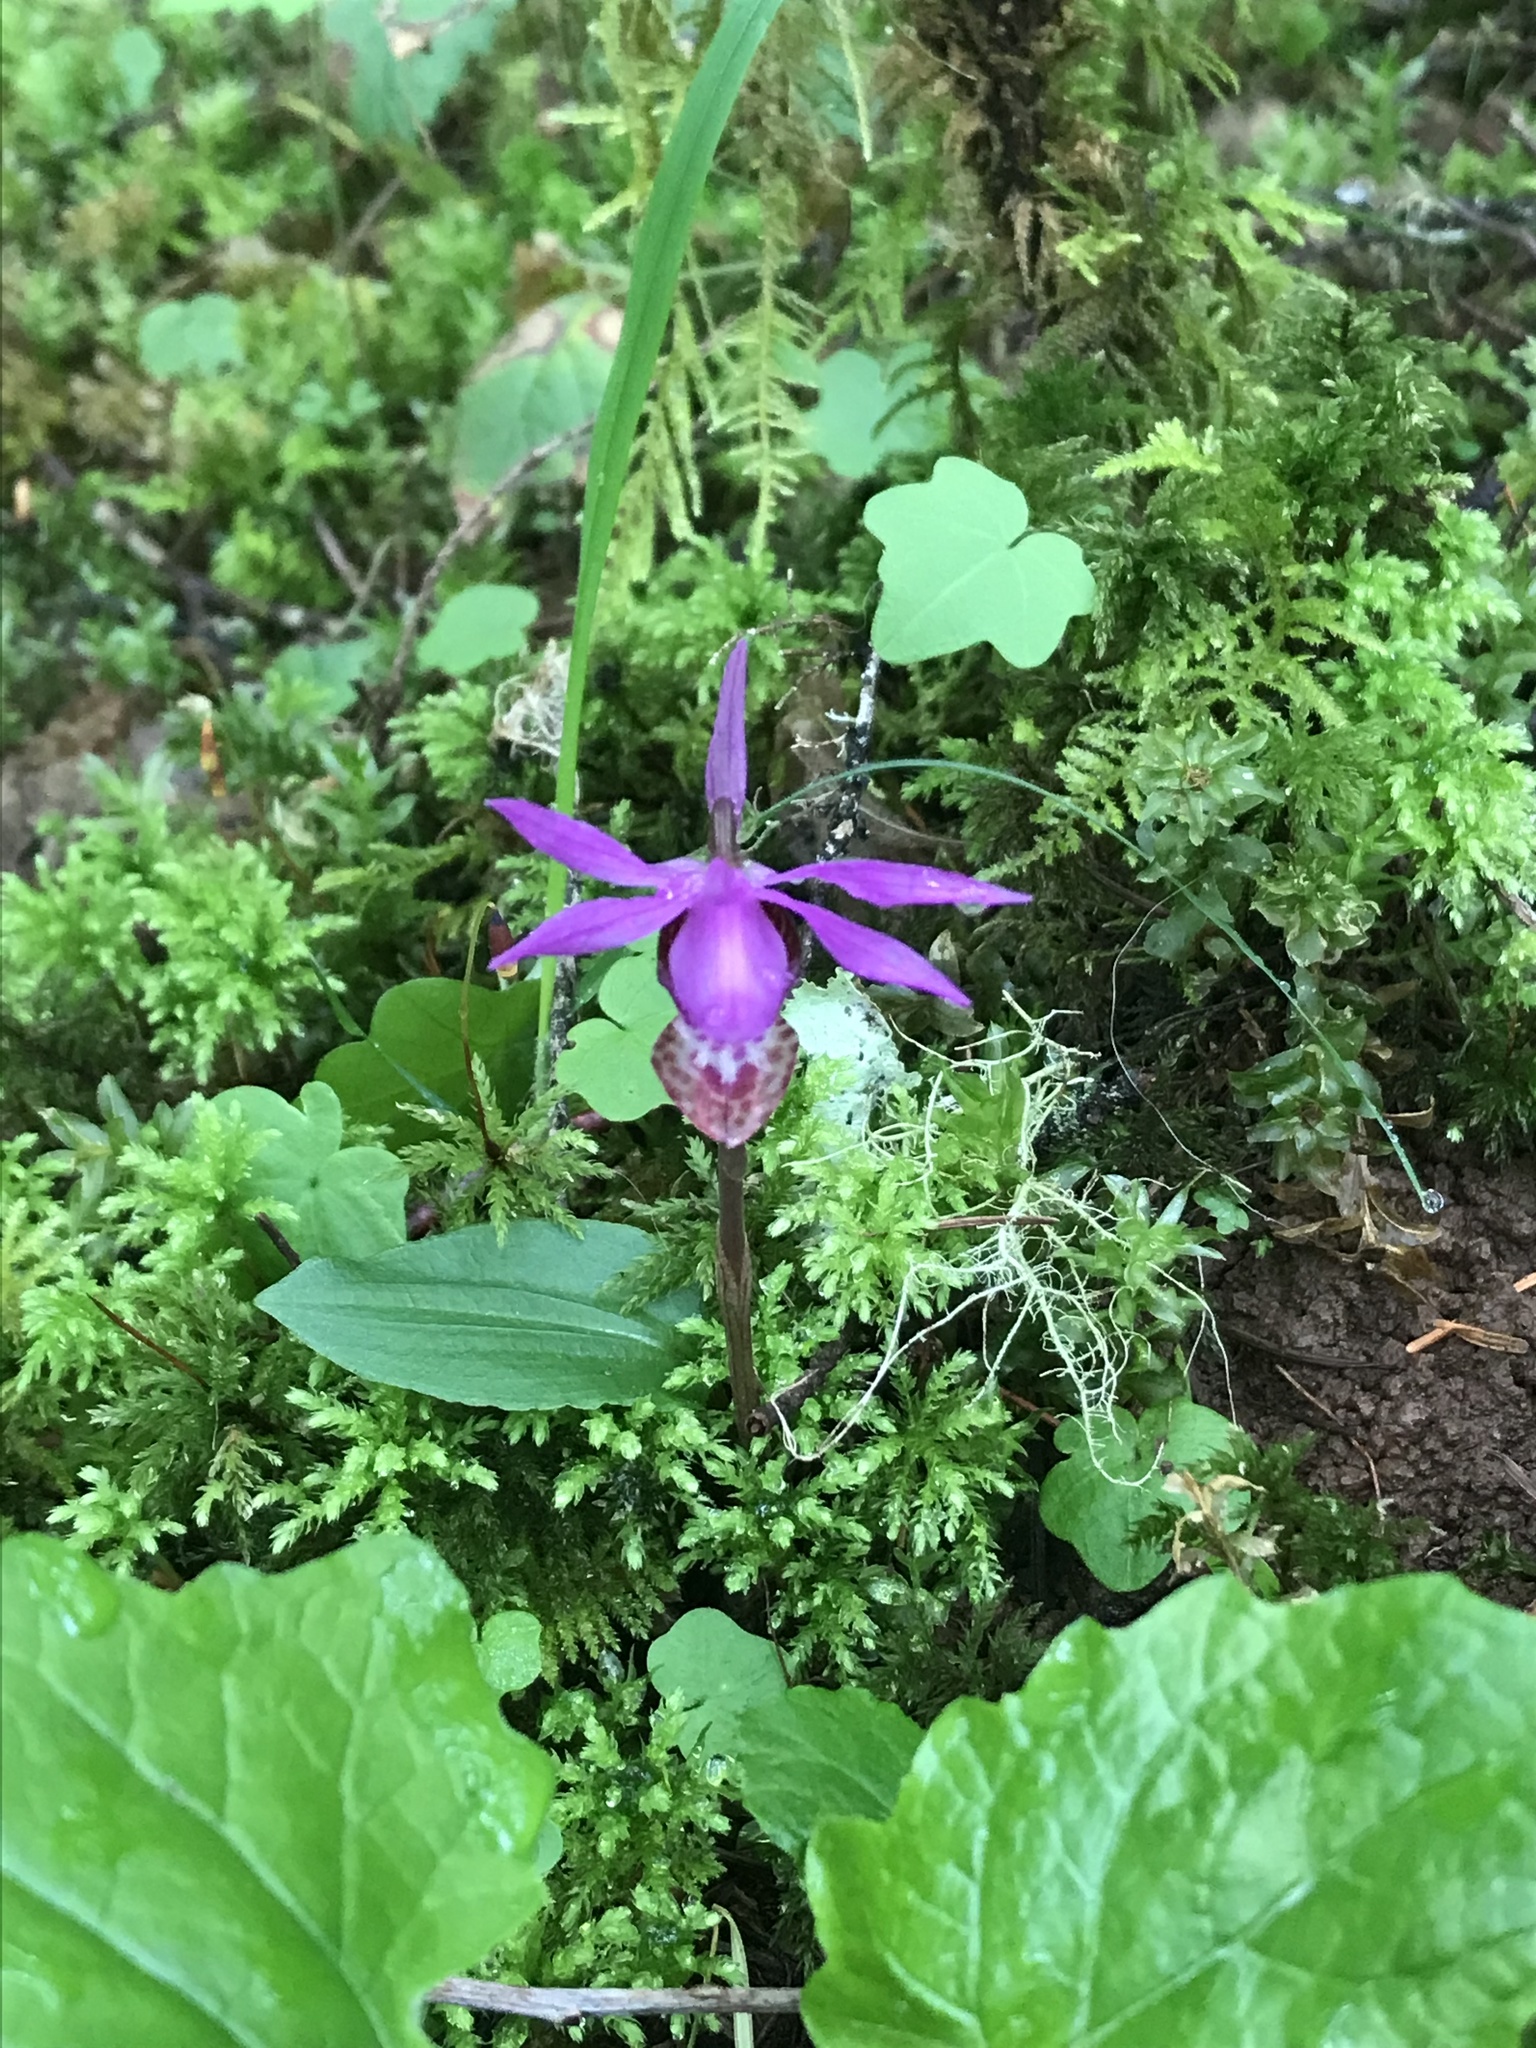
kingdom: Plantae
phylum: Tracheophyta
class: Liliopsida
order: Asparagales
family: Orchidaceae
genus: Calypso
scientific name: Calypso bulbosa
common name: Calypso
